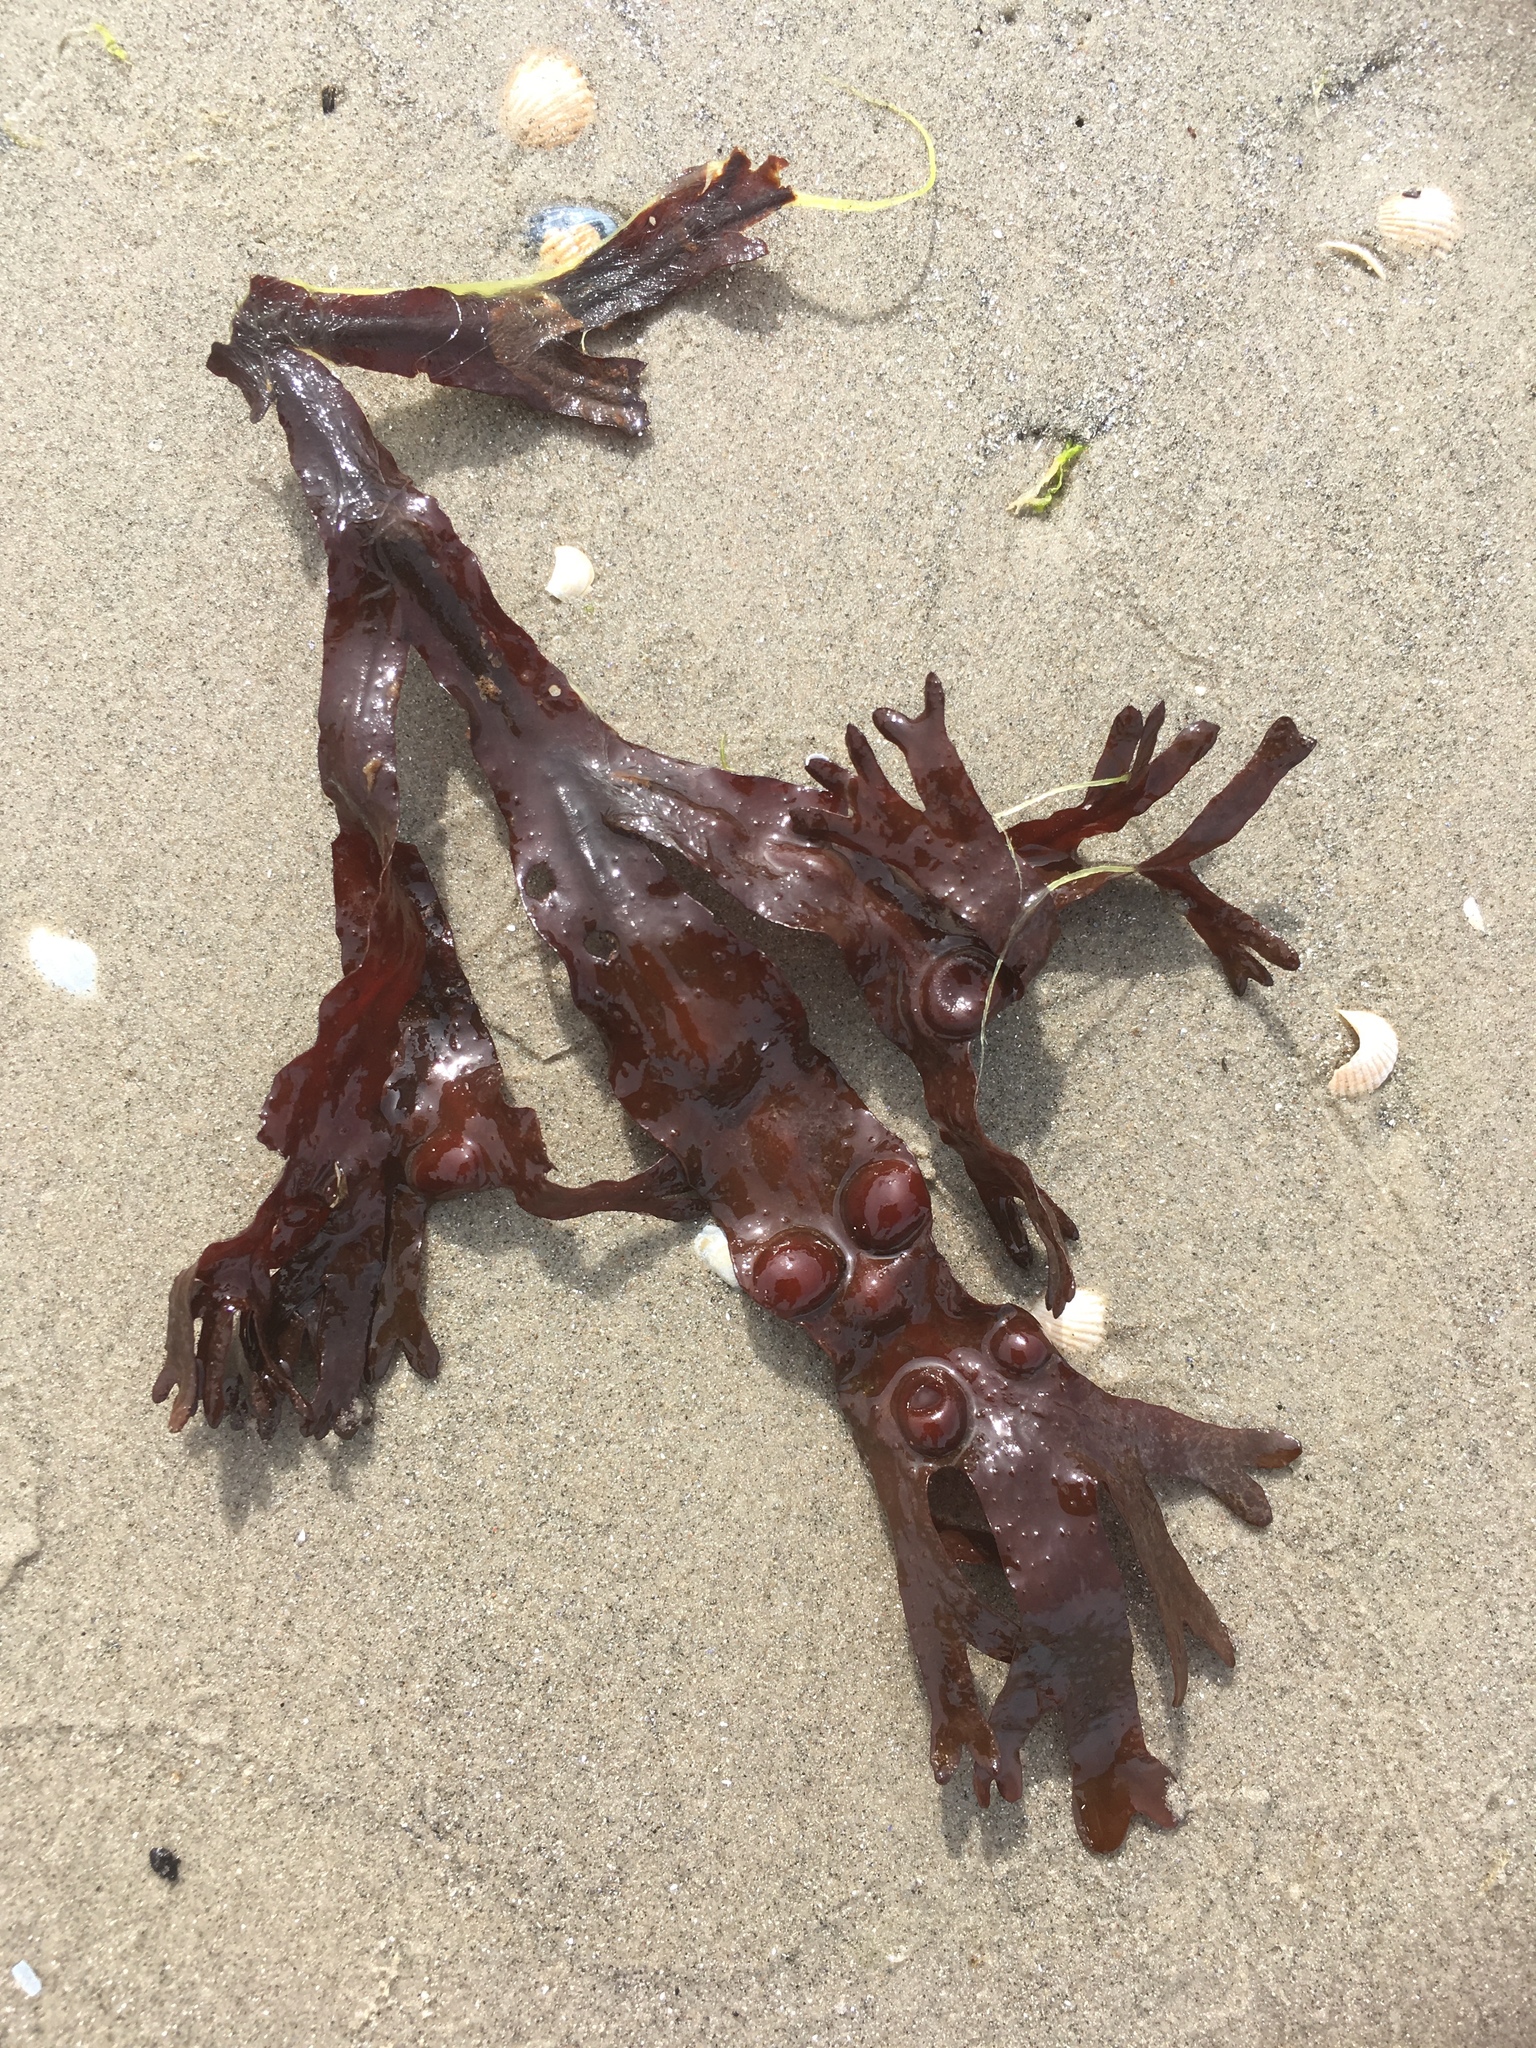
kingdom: Chromista
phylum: Ochrophyta
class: Phaeophyceae
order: Fucales
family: Fucaceae
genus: Fucus
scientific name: Fucus vesiculosus
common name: Bladder wrack
